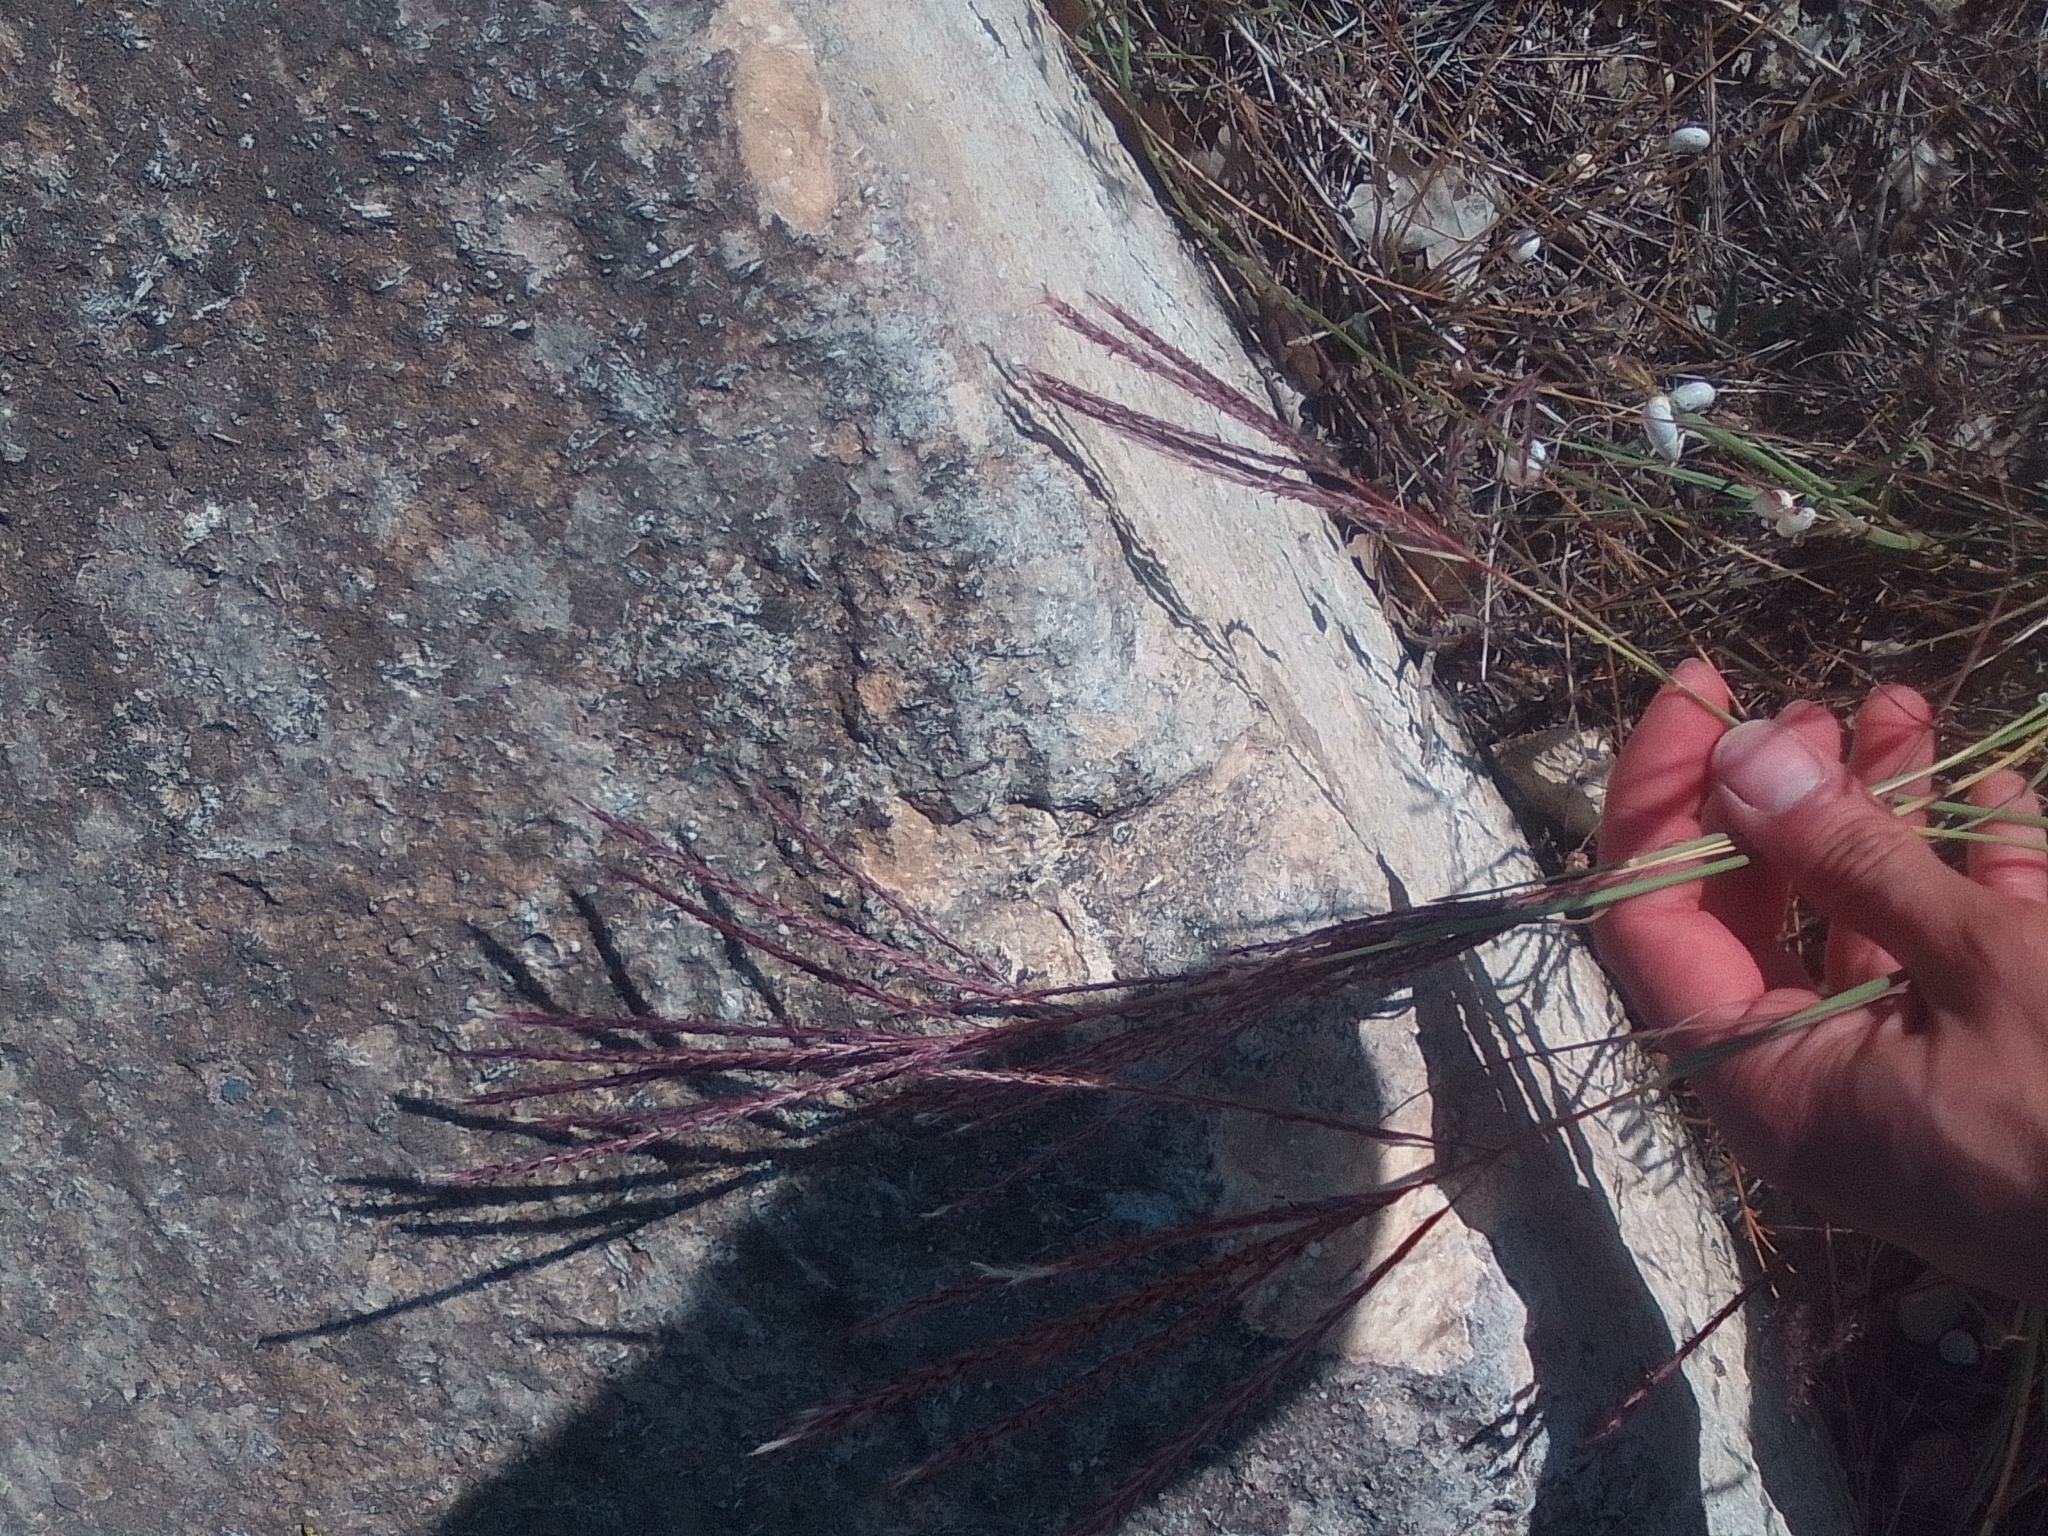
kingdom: Plantae
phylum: Tracheophyta
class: Liliopsida
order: Poales
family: Poaceae
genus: Bothriochloa
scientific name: Bothriochloa ischaemum
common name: Yellow bluestem
